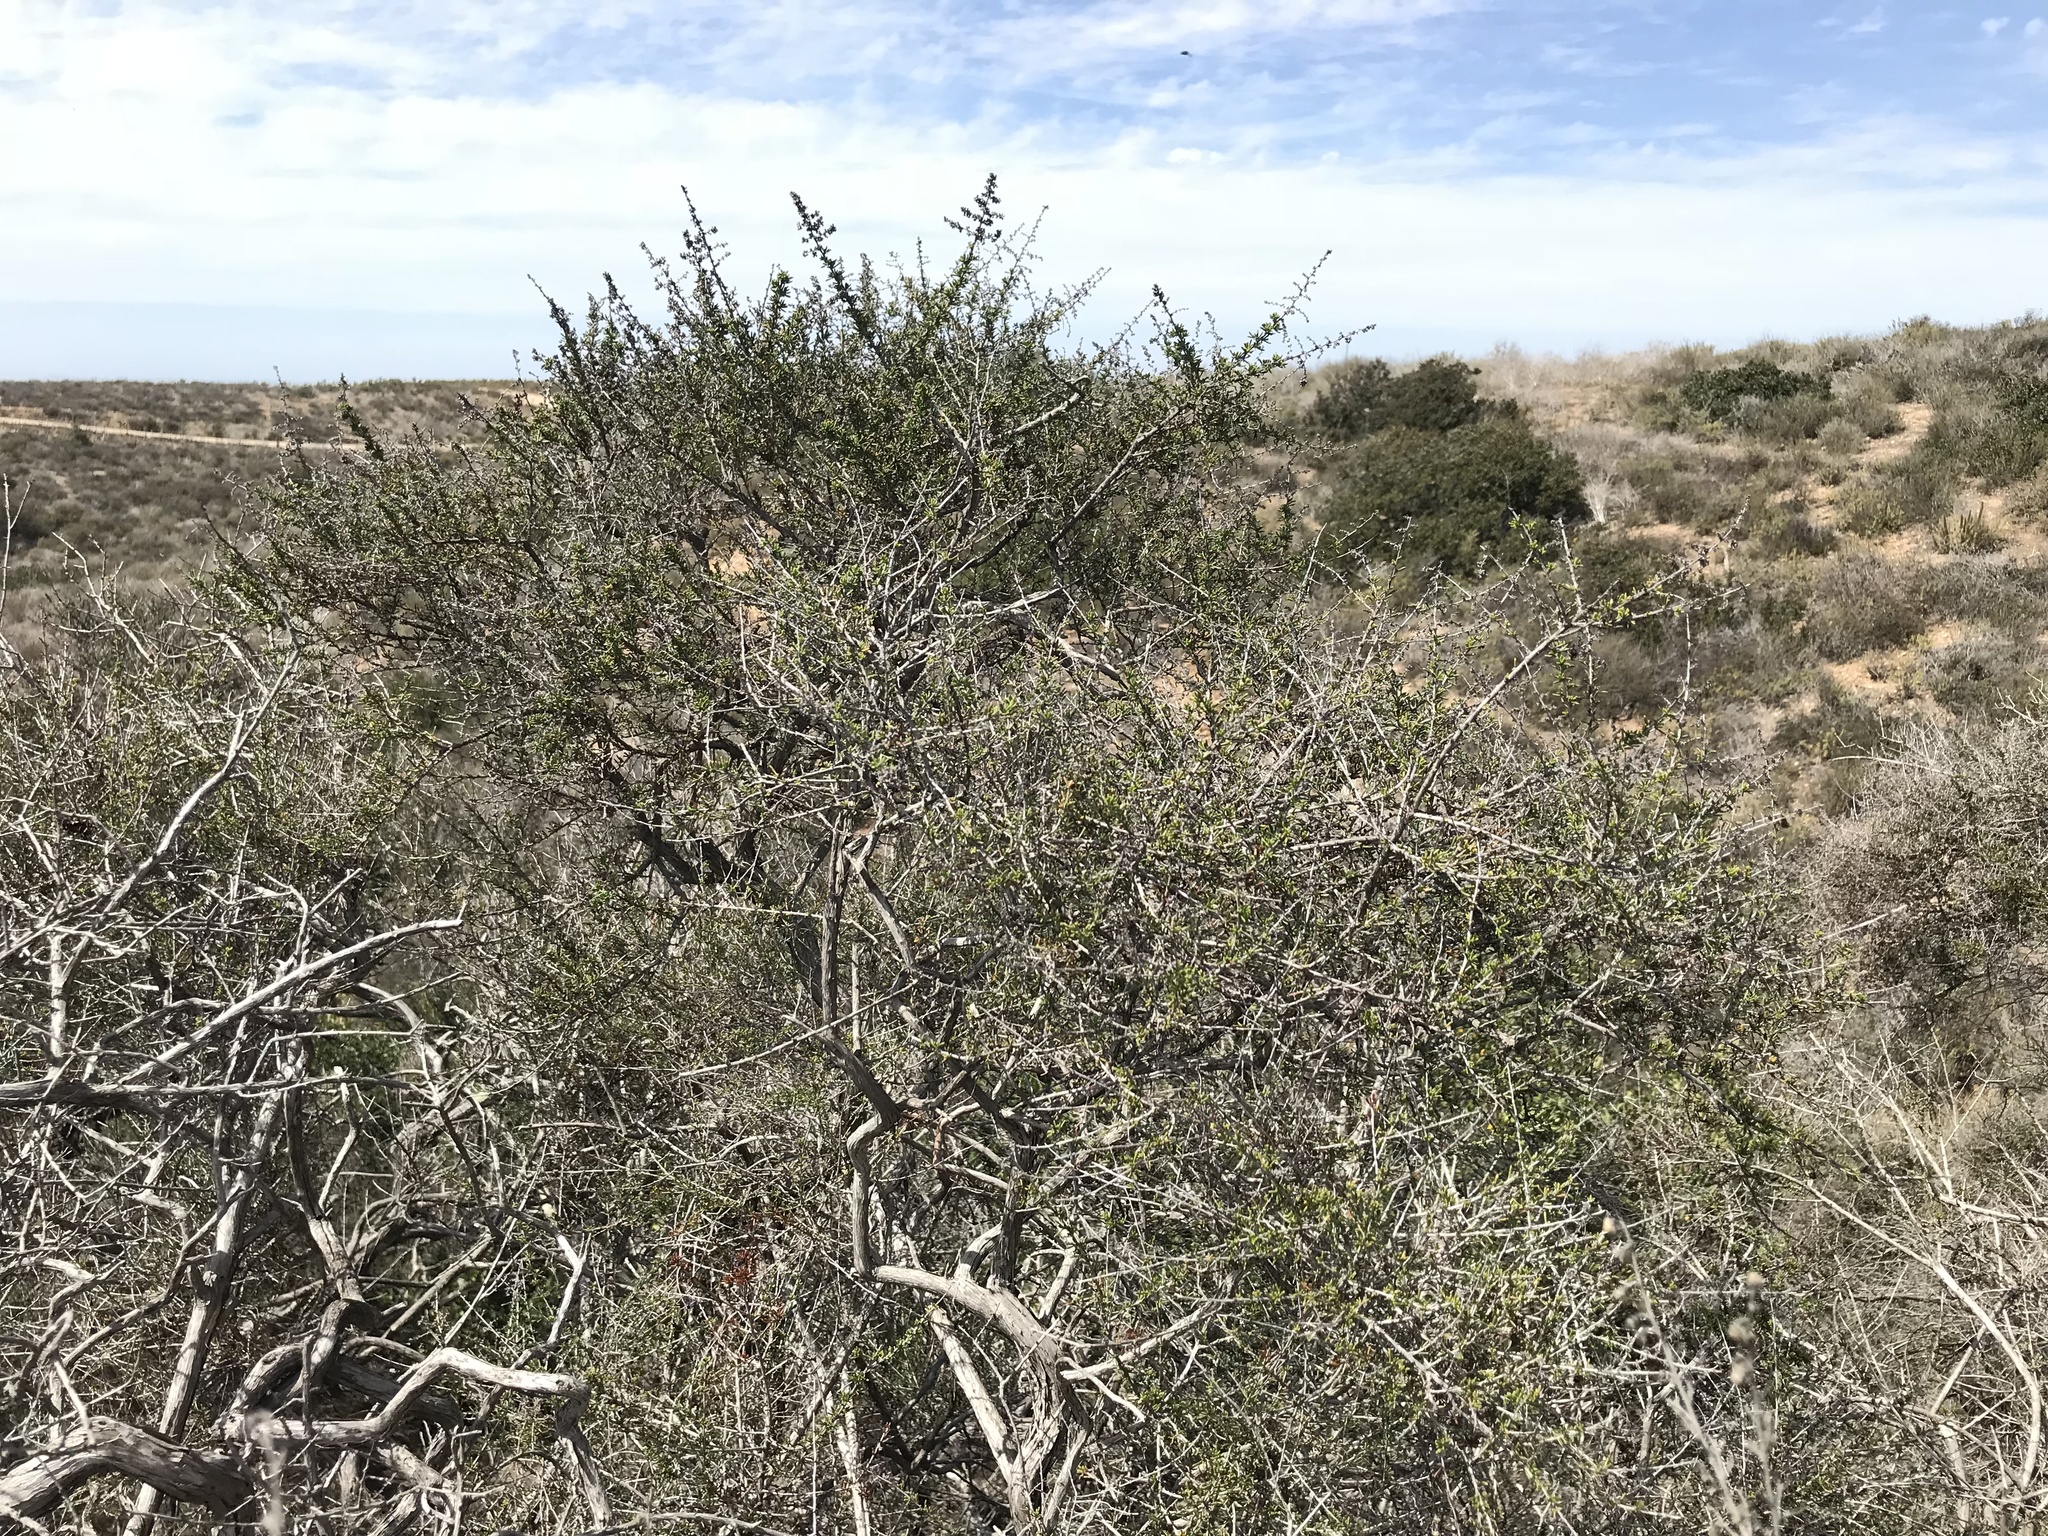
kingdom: Plantae
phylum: Tracheophyta
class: Magnoliopsida
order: Rosales
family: Rosaceae
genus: Adenostoma
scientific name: Adenostoma fasciculatum
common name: Chamise
